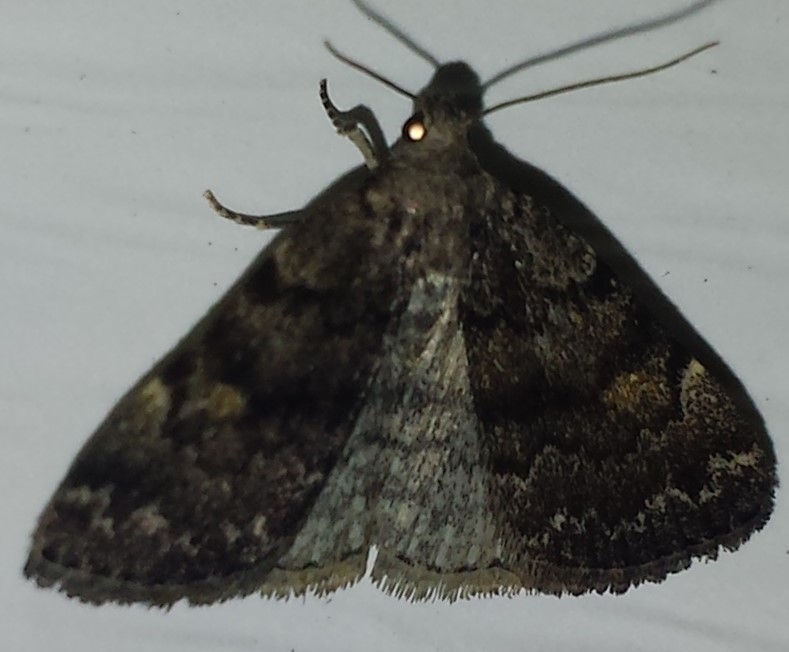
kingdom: Animalia
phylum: Arthropoda
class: Insecta
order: Lepidoptera
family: Erebidae
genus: Idia
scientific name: Idia aemula
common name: Common idia moth
